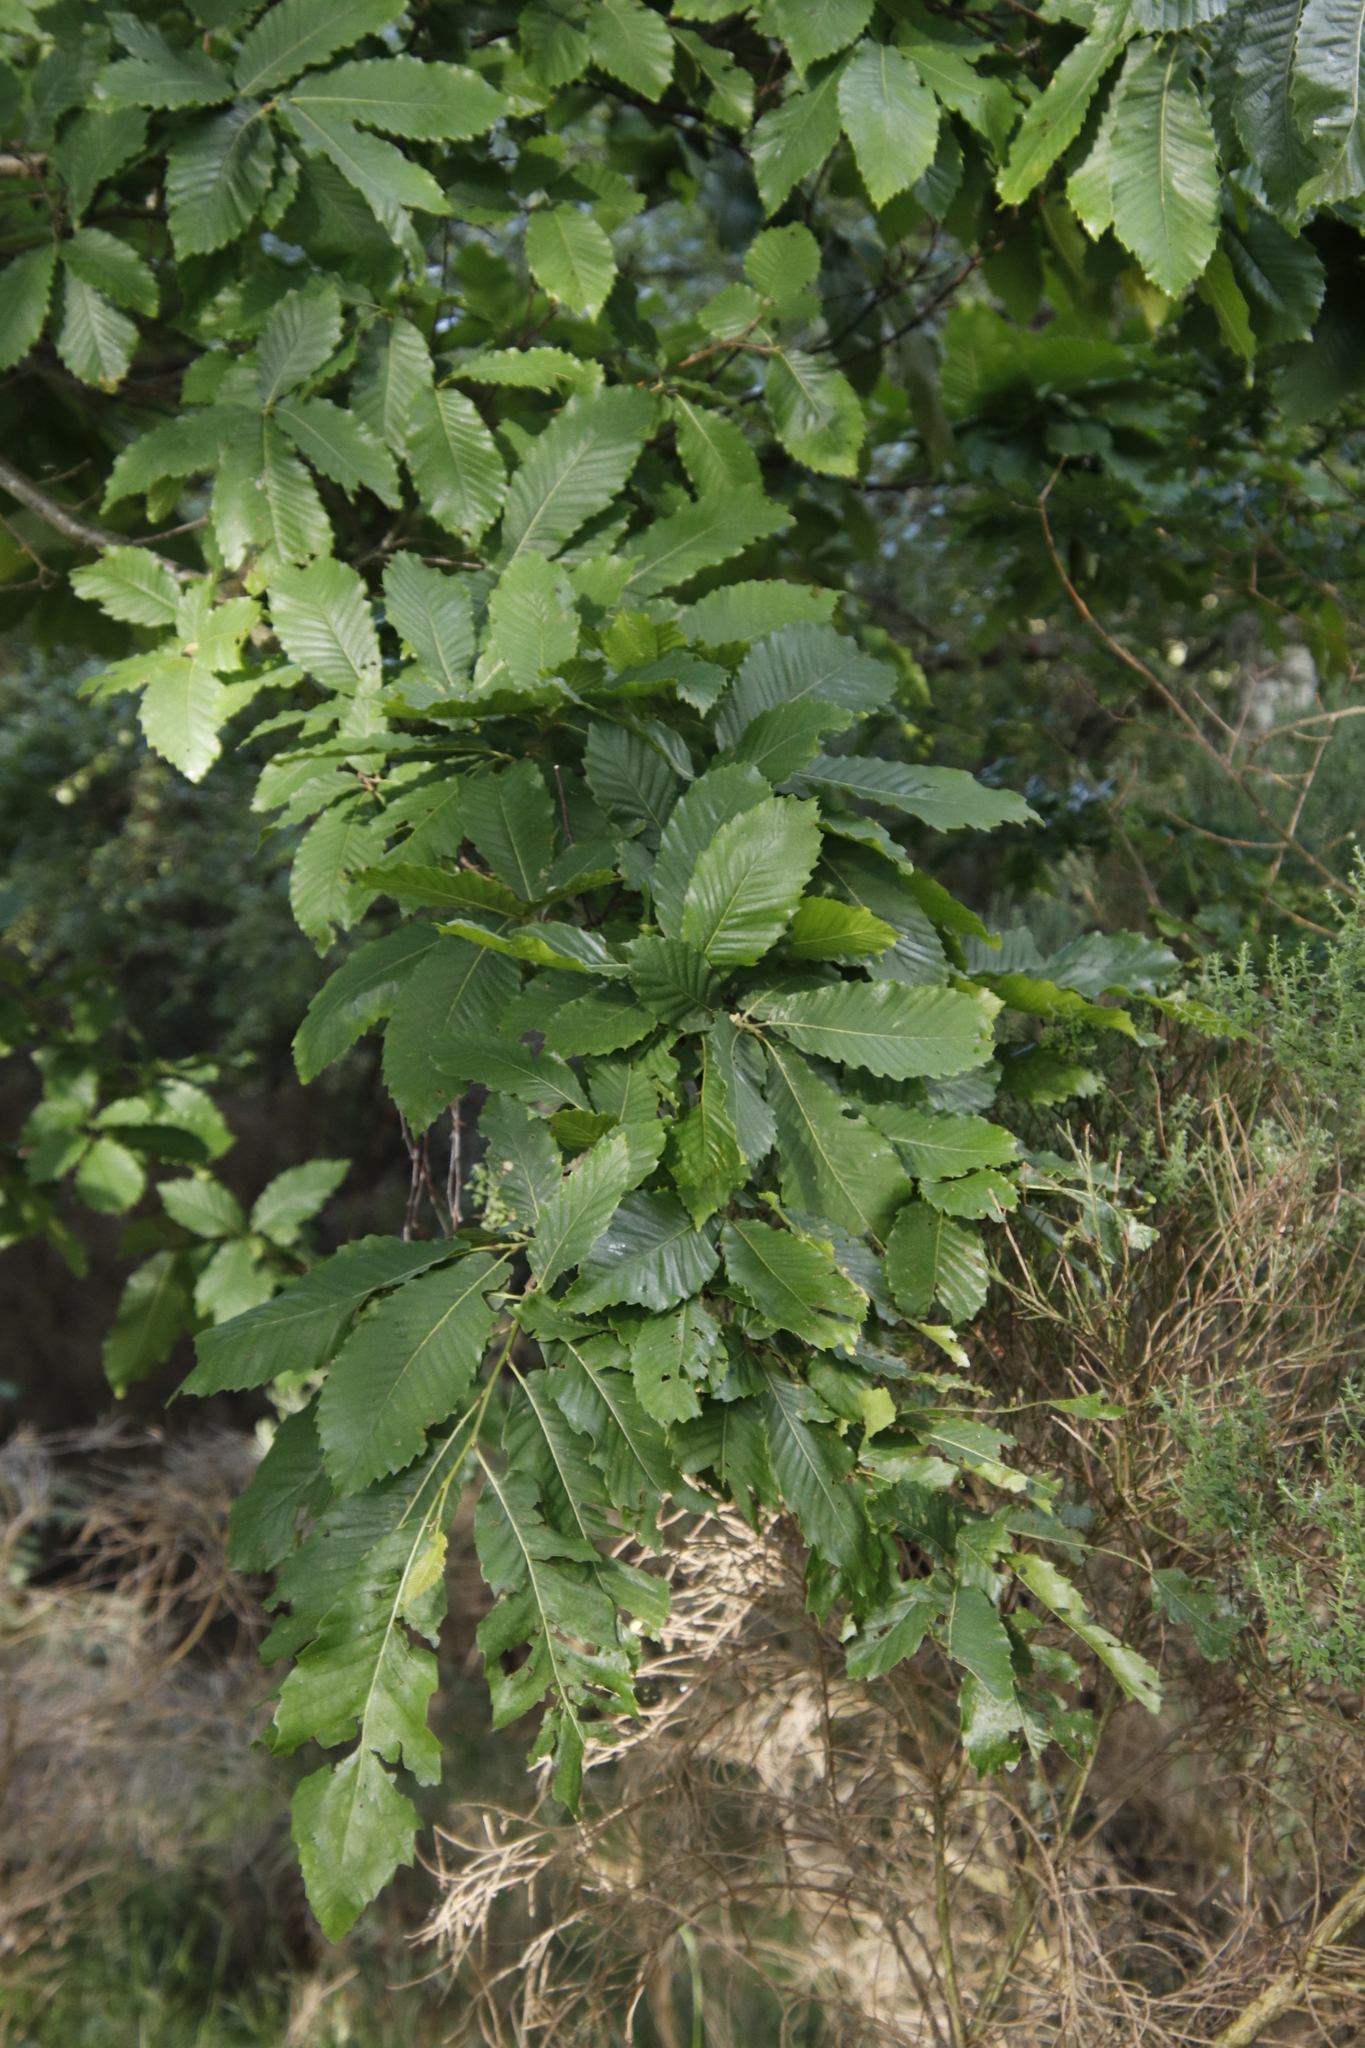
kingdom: Plantae
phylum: Tracheophyta
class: Magnoliopsida
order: Fagales
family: Fagaceae
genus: Castanea
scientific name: Castanea sativa
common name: Sweet chestnut
